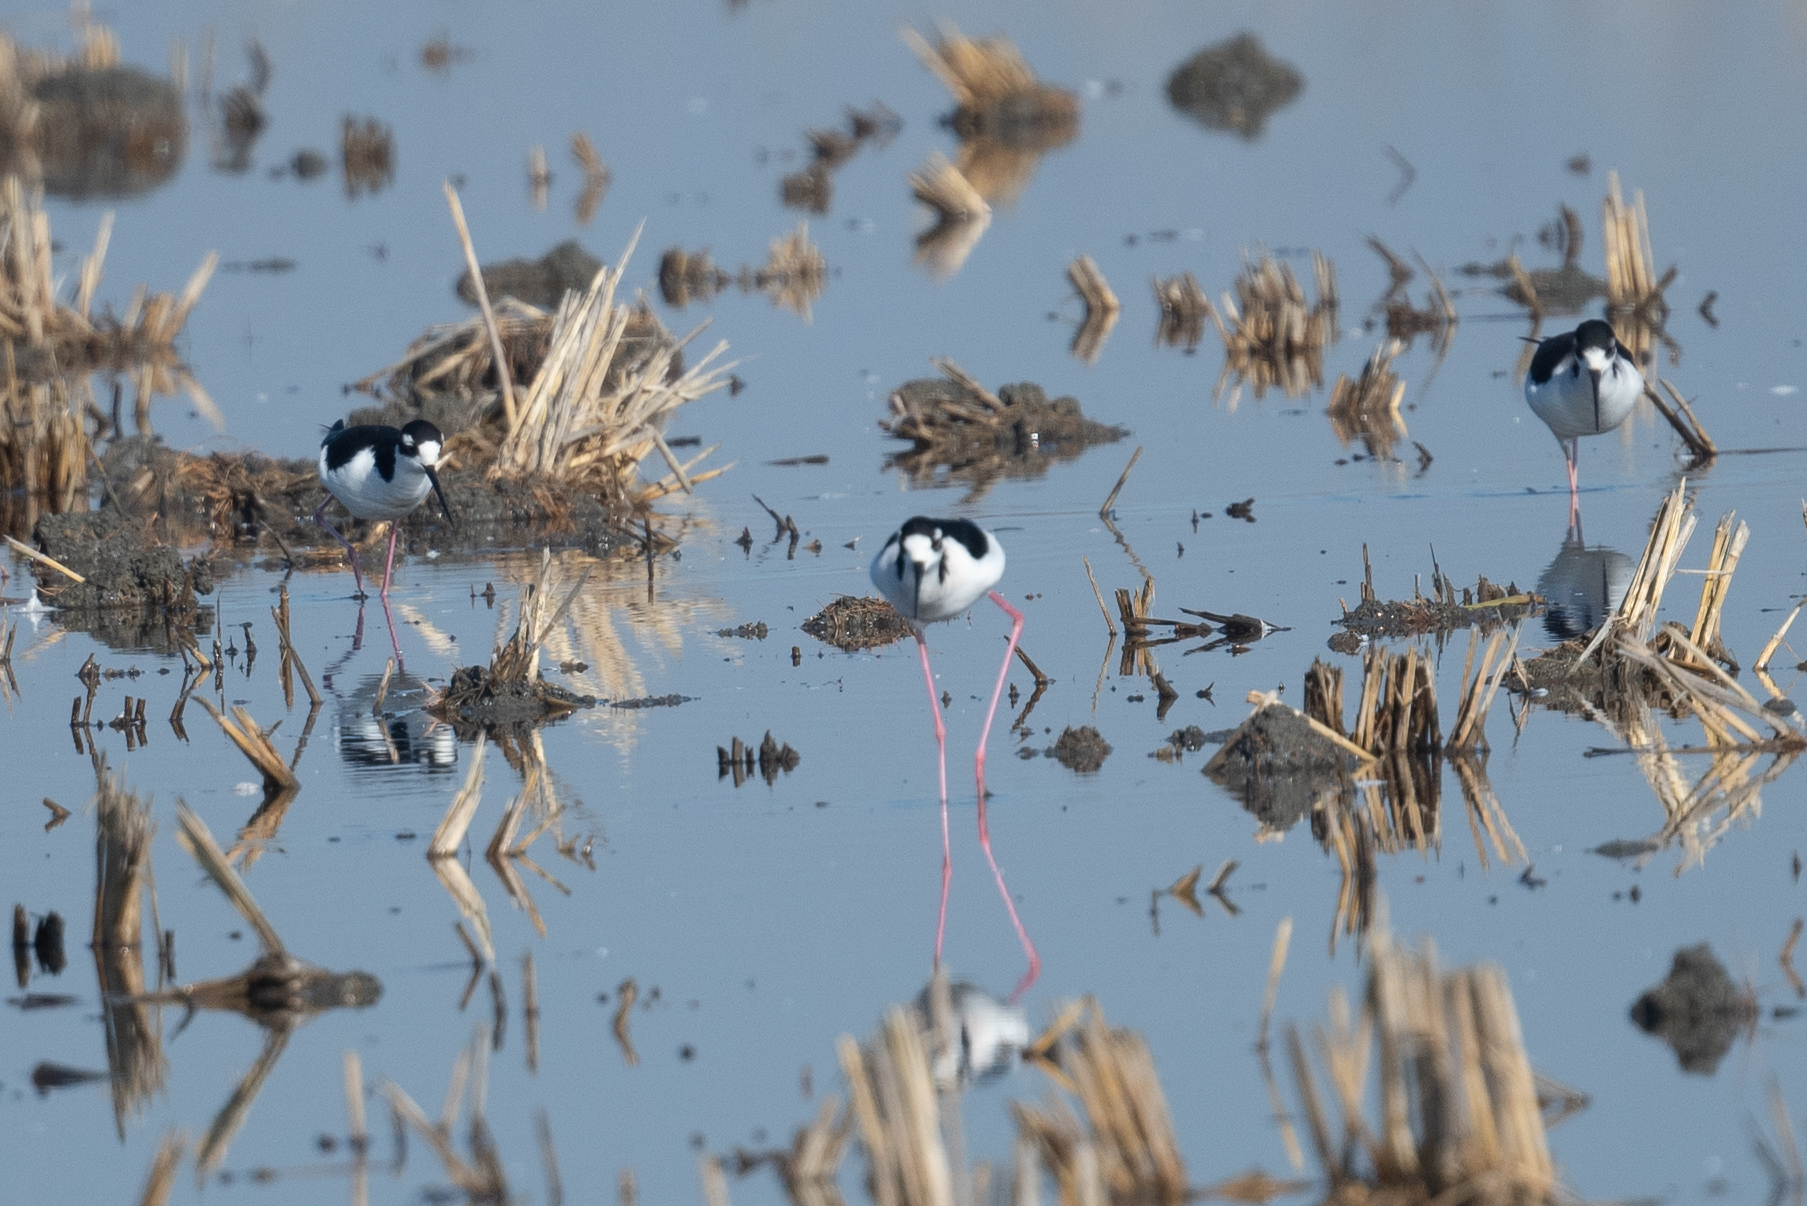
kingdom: Animalia
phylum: Chordata
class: Aves
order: Charadriiformes
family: Recurvirostridae
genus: Himantopus
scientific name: Himantopus mexicanus
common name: Black-necked stilt
